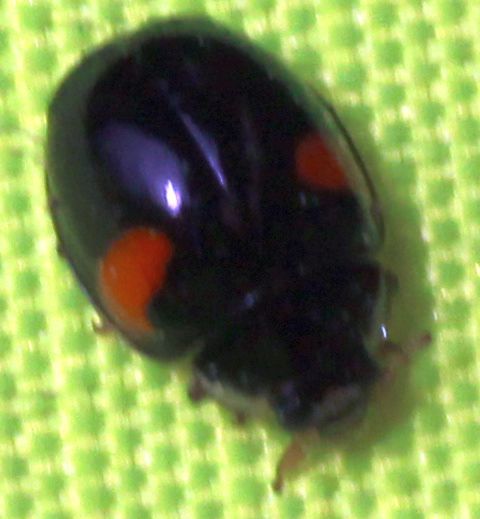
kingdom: Animalia
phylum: Arthropoda
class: Insecta
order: Coleoptera
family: Coccinellidae
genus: Adalia
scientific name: Adalia decempunctata
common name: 10-spot ladybird
